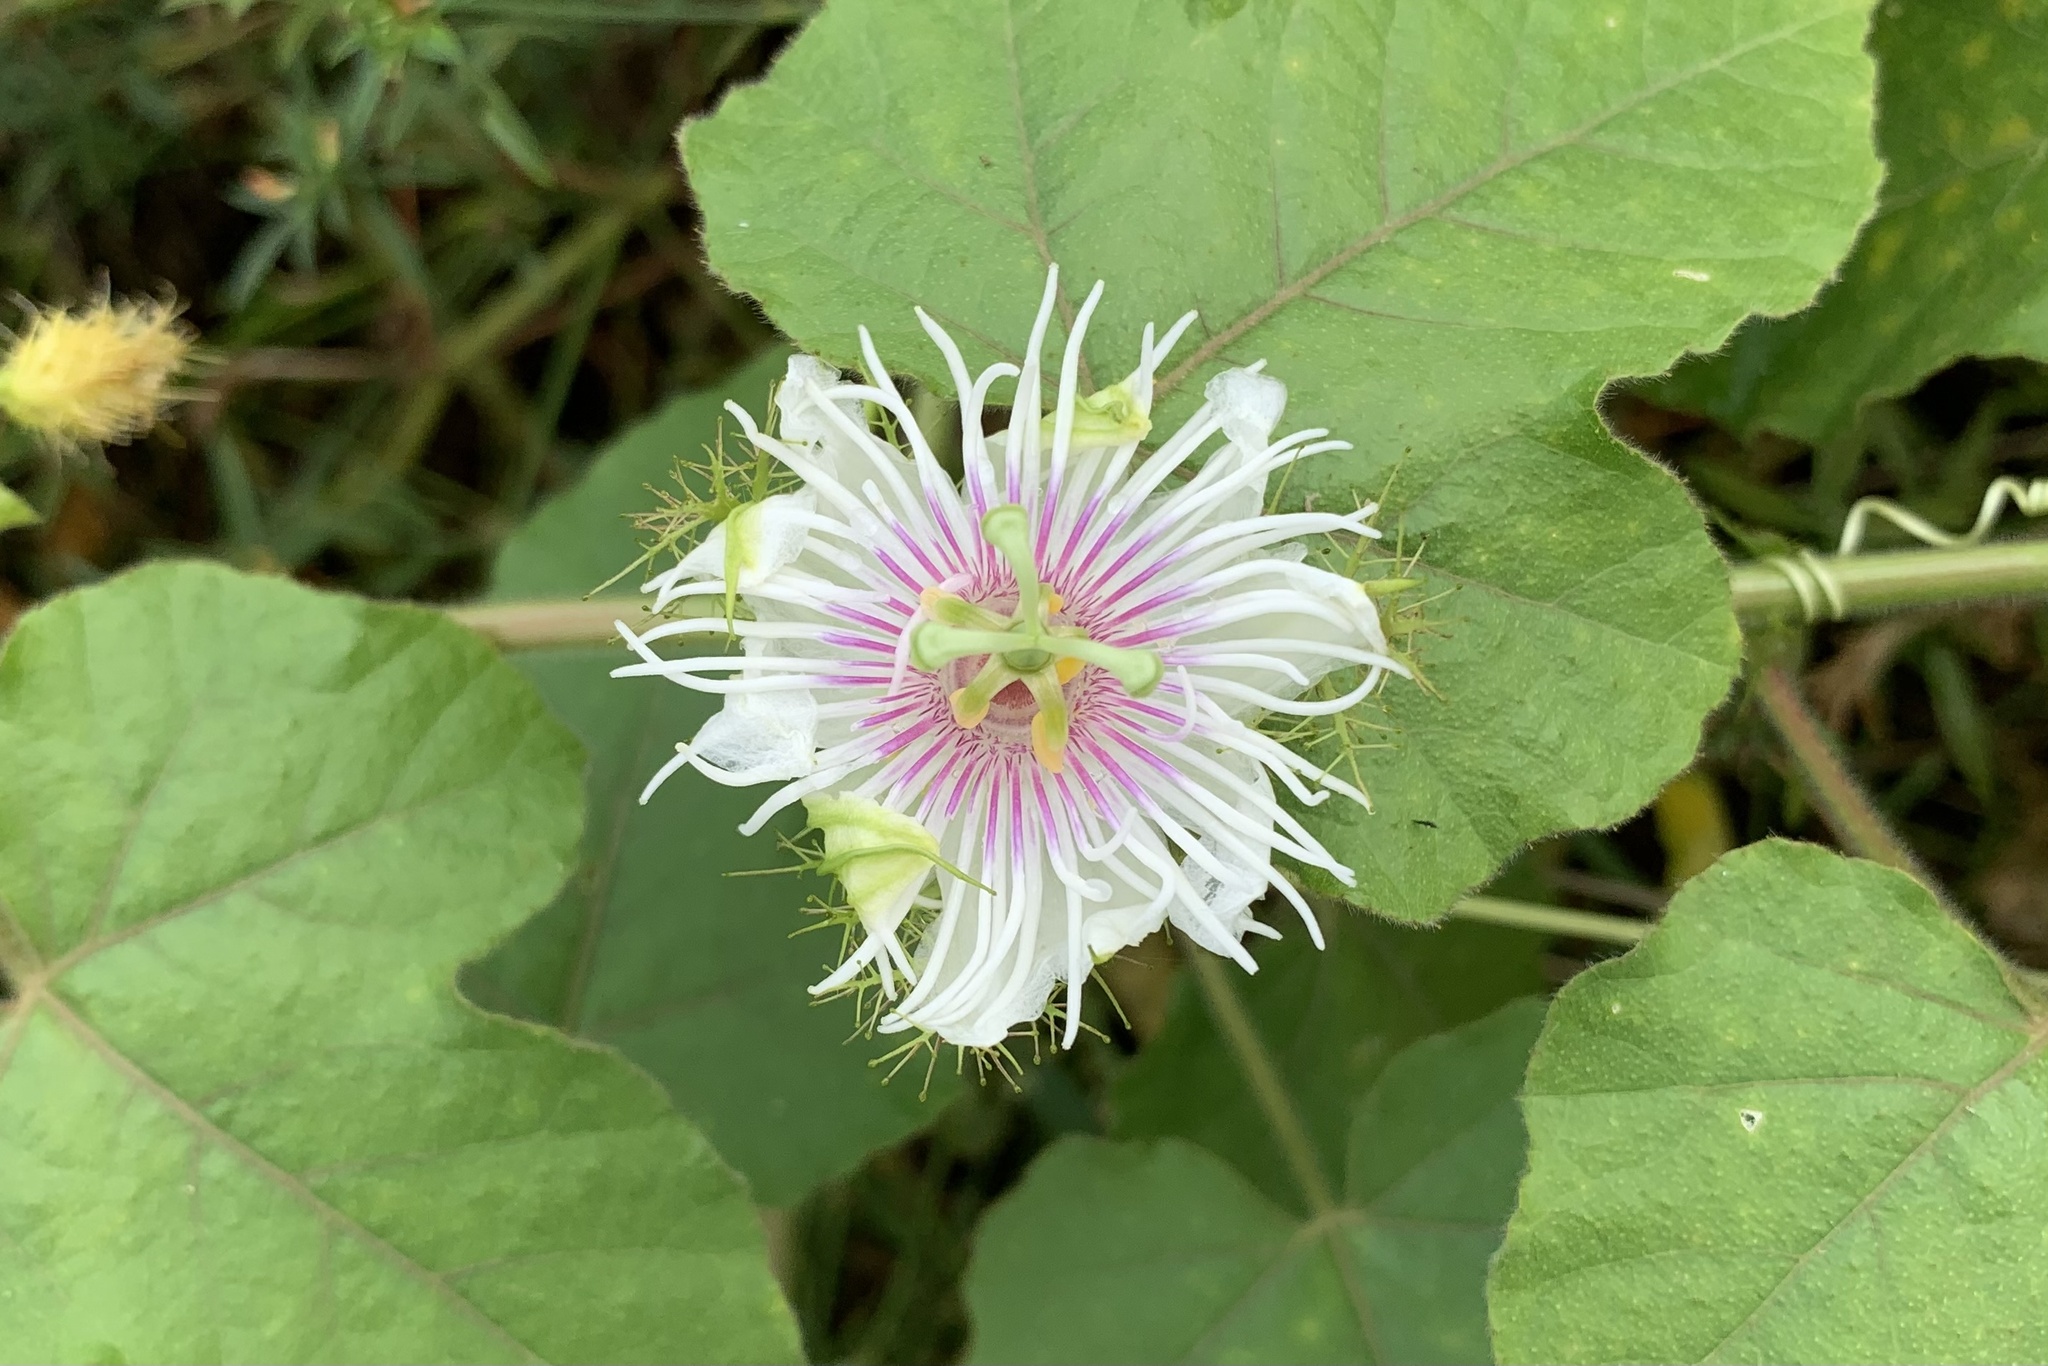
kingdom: Plantae
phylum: Tracheophyta
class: Magnoliopsida
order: Malpighiales
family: Passifloraceae
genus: Passiflora
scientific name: Passiflora vesicaria
